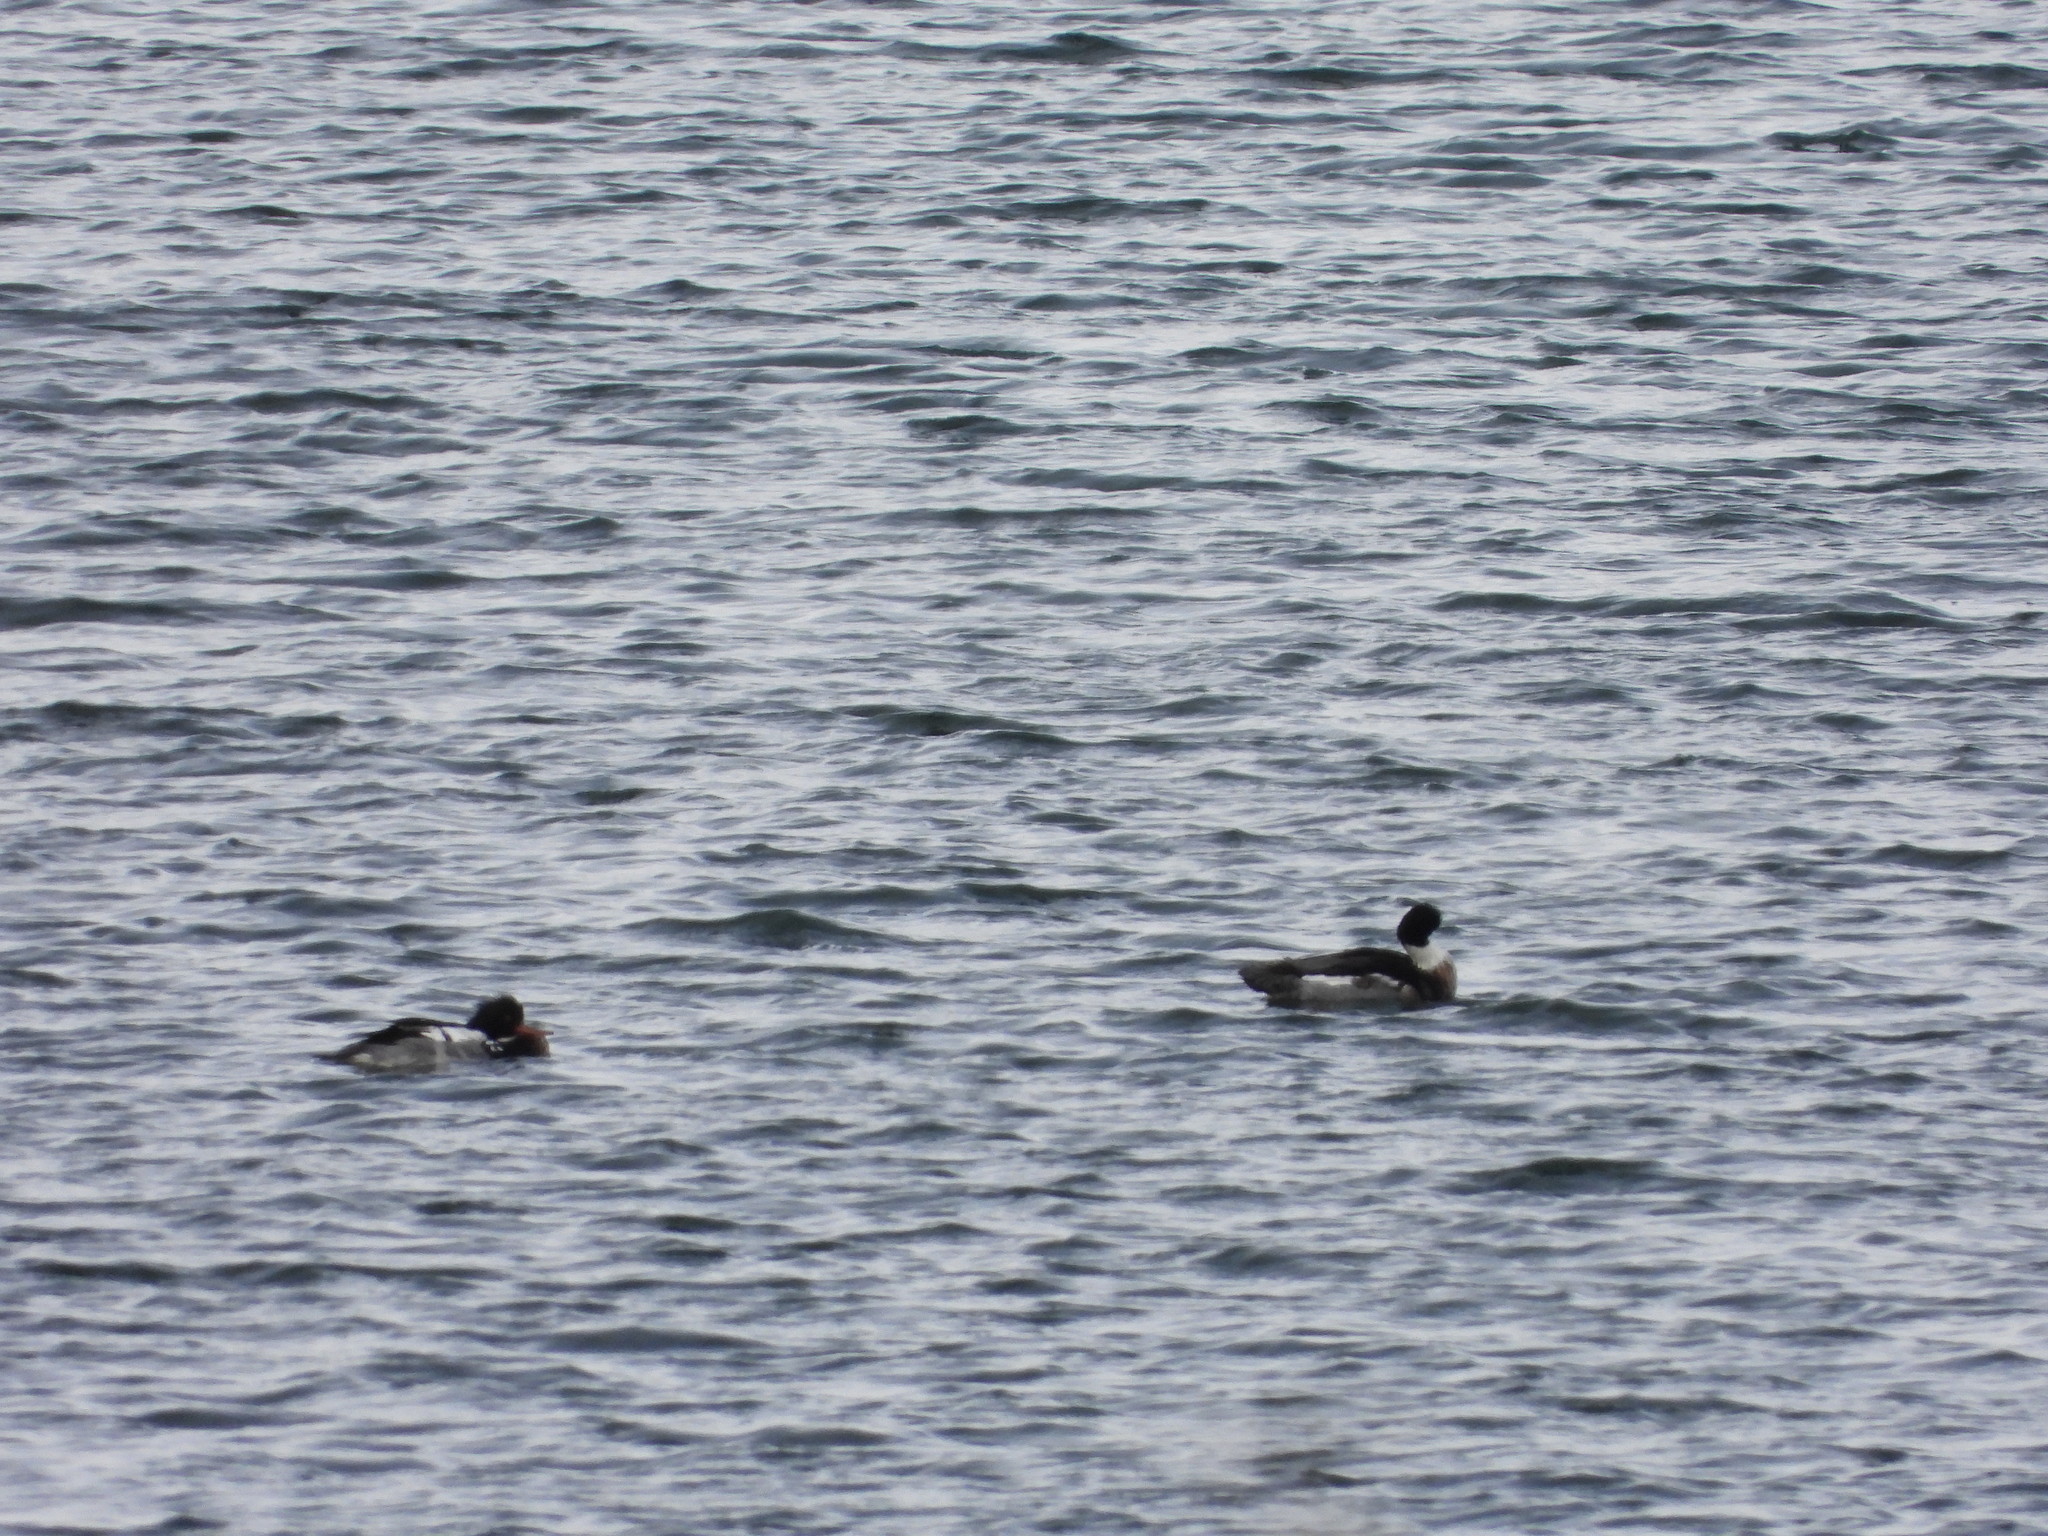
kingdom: Animalia
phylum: Chordata
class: Aves
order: Anseriformes
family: Anatidae
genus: Mergus
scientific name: Mergus serrator
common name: Red-breasted merganser
